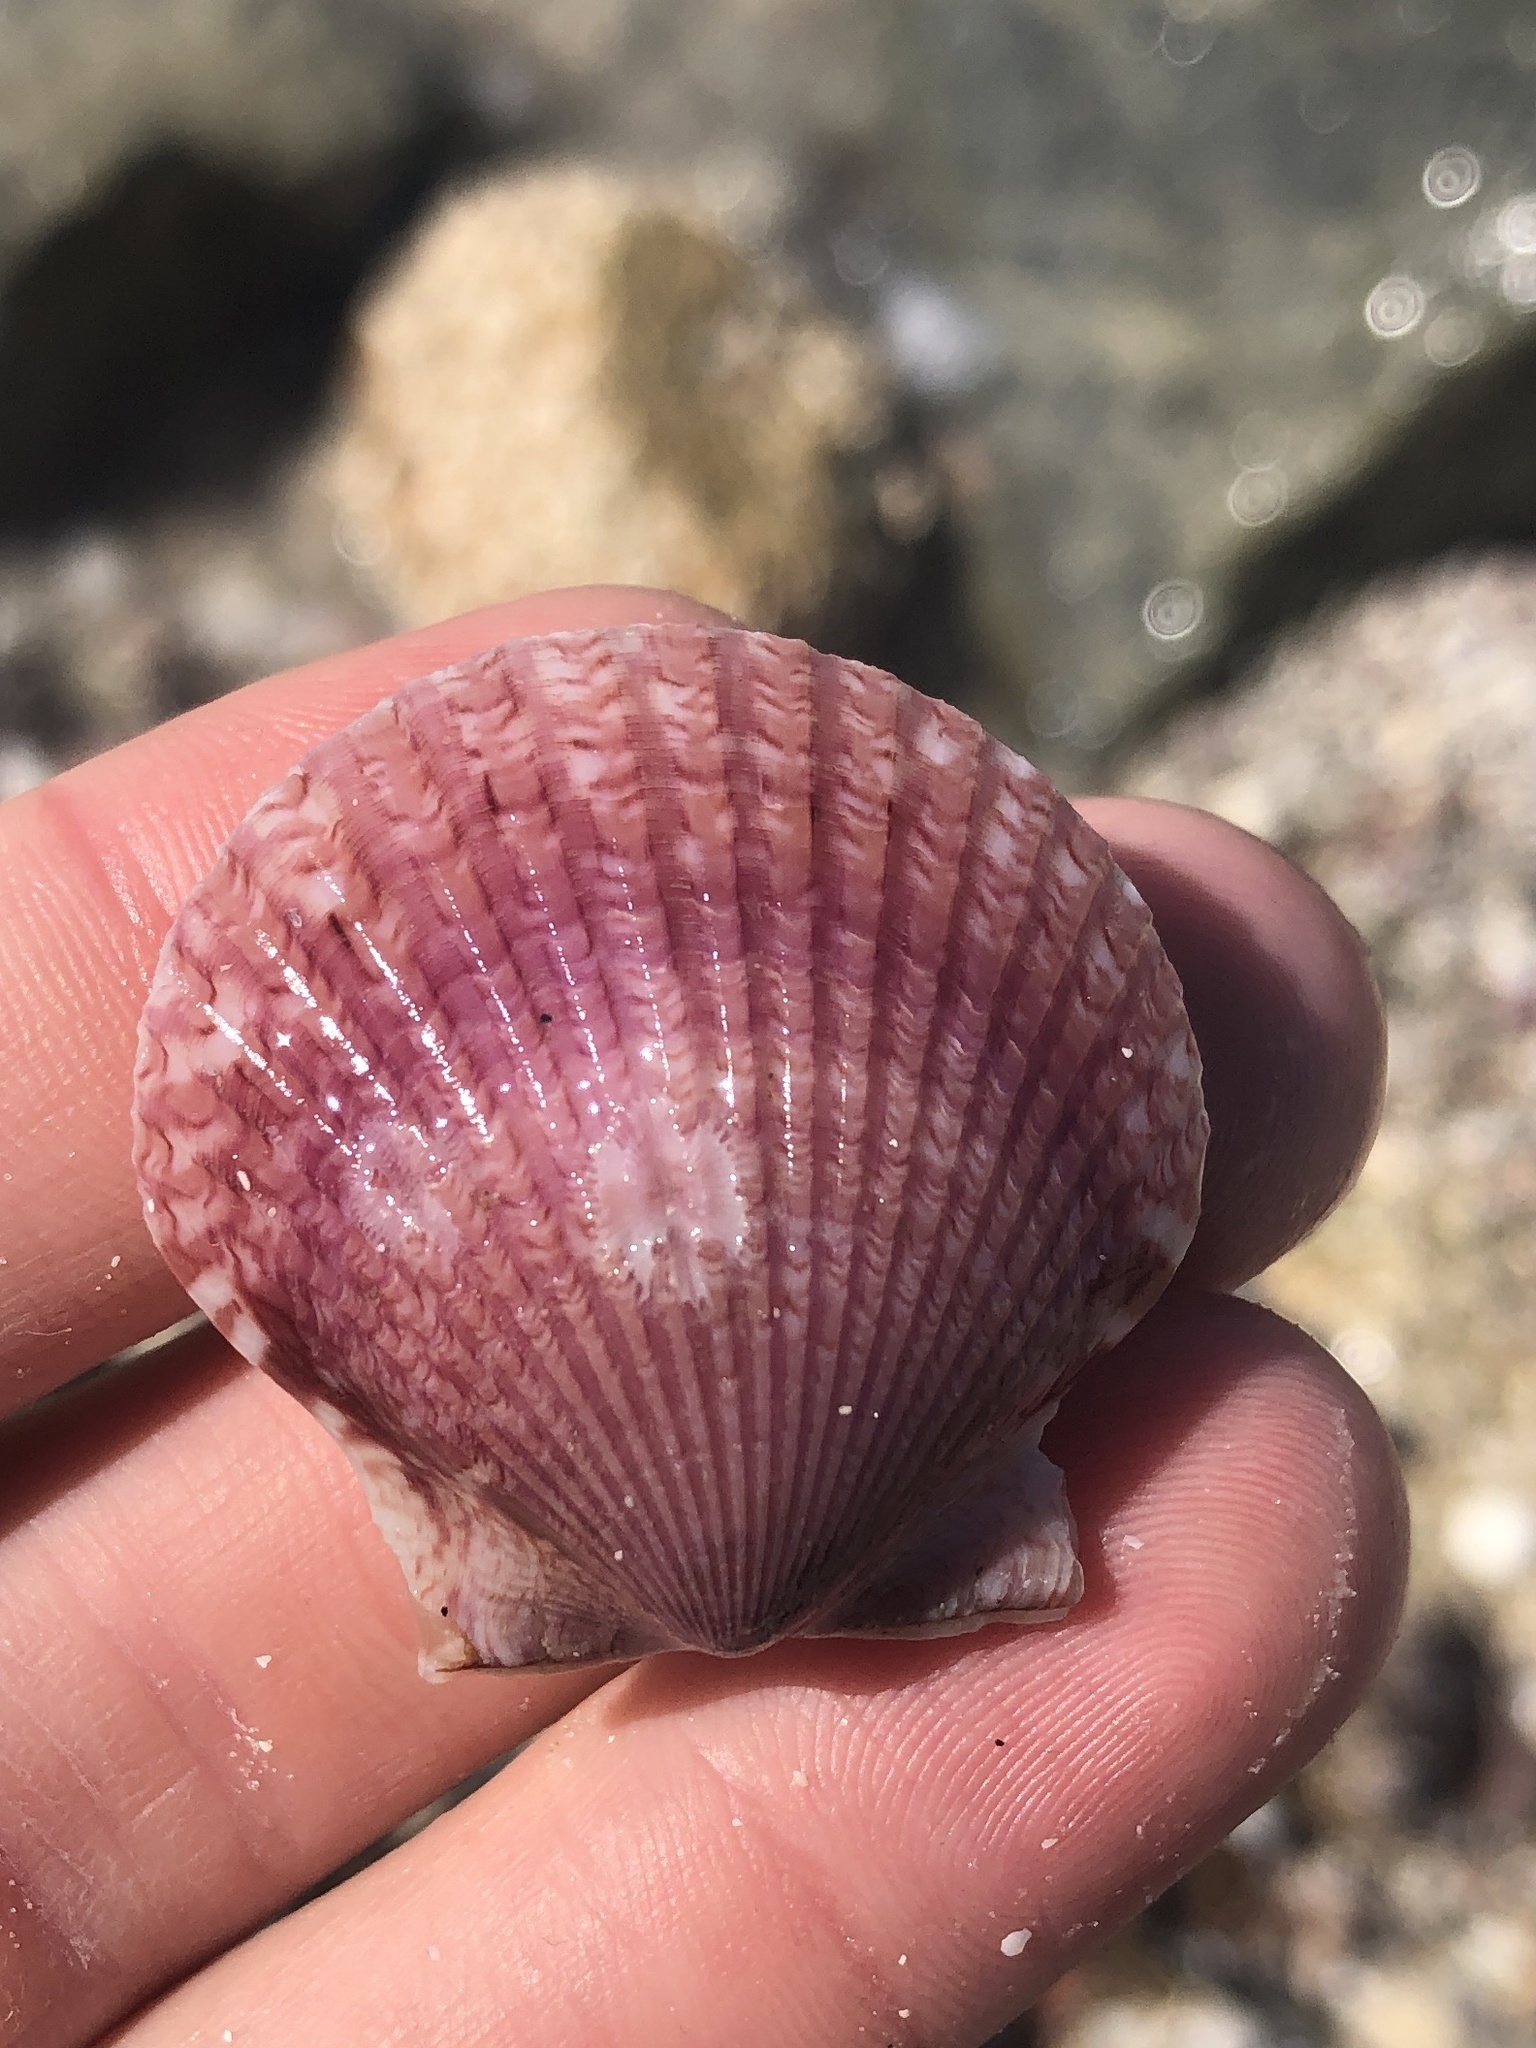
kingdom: Animalia
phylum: Mollusca
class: Bivalvia
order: Pectinida
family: Pectinidae
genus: Argopecten
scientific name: Argopecten gibbus
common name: Atlantic calico scallop
